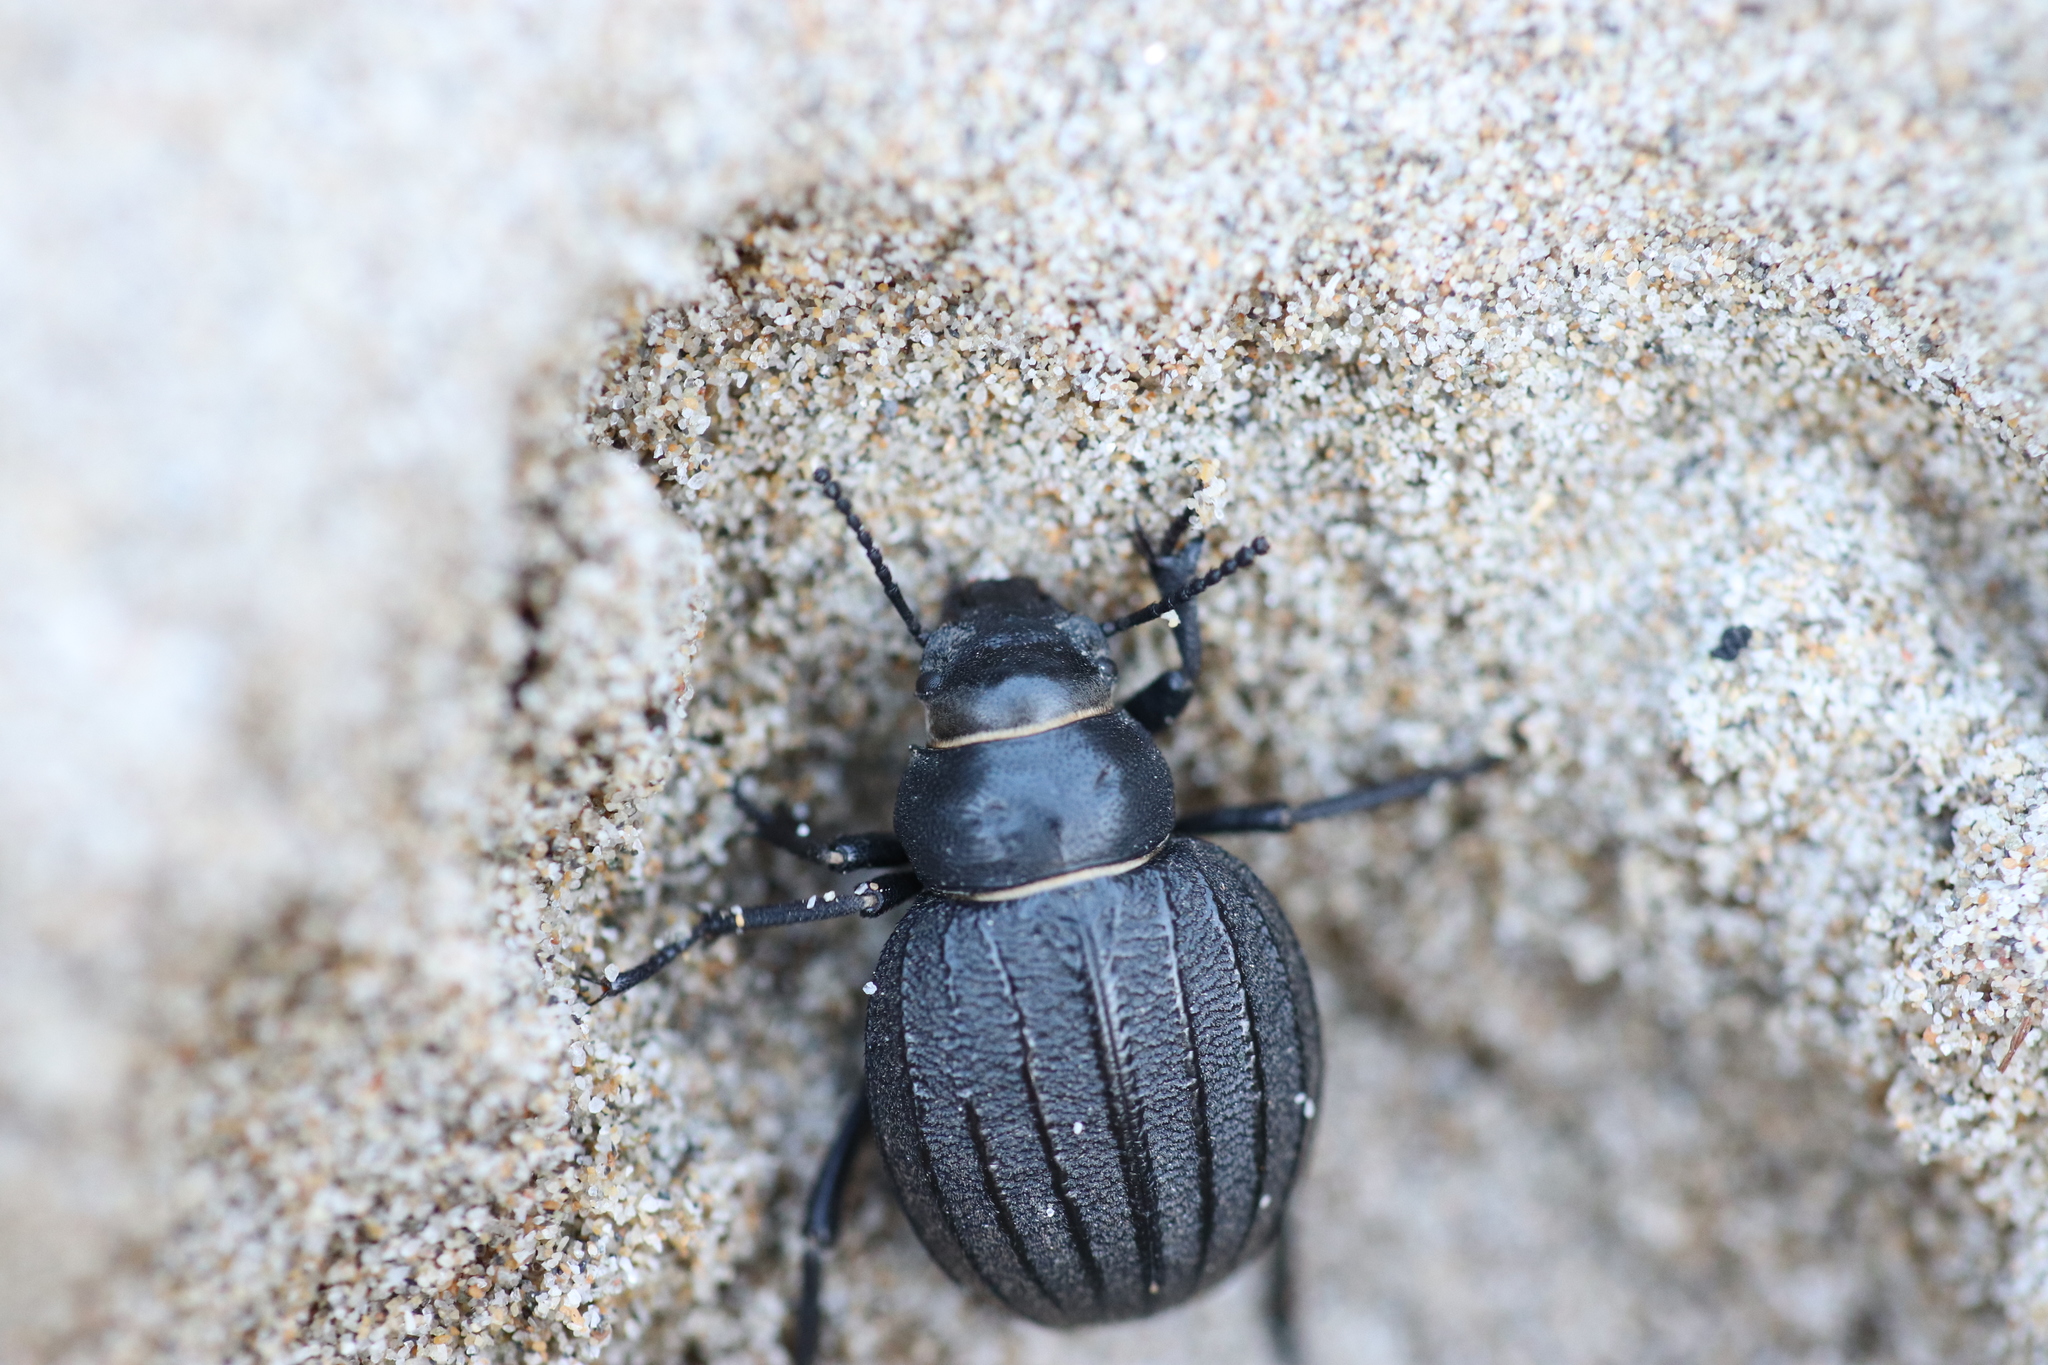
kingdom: Animalia
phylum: Arthropoda
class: Insecta
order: Coleoptera
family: Tenebrionidae
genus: Pimelia
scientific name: Pimelia muricata
